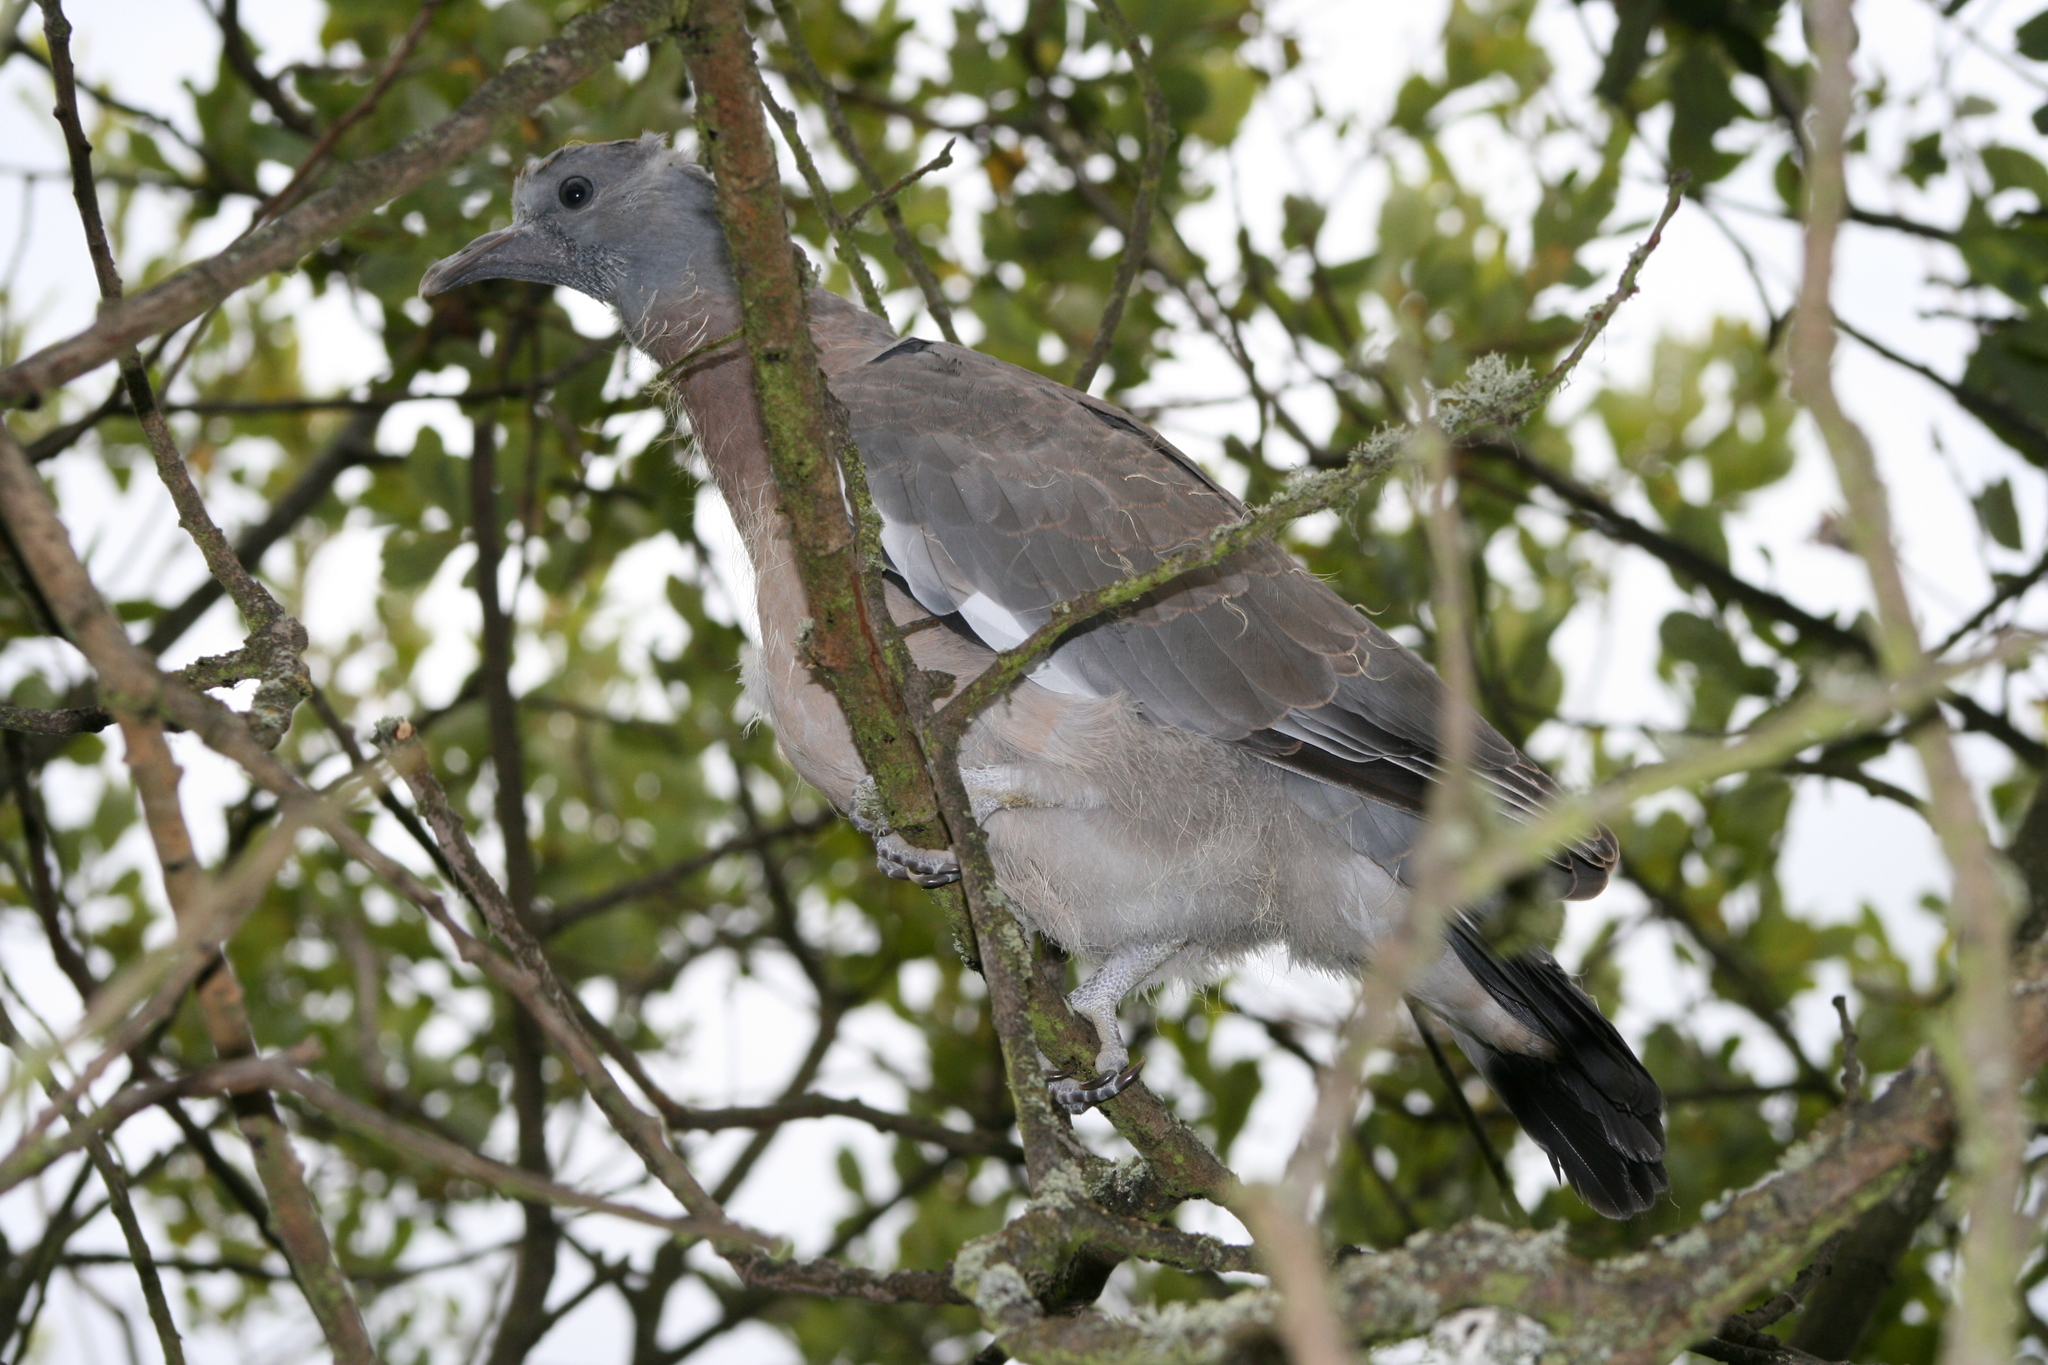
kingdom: Animalia
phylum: Chordata
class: Aves
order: Columbiformes
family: Columbidae
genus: Columba
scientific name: Columba palumbus
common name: Common wood pigeon
